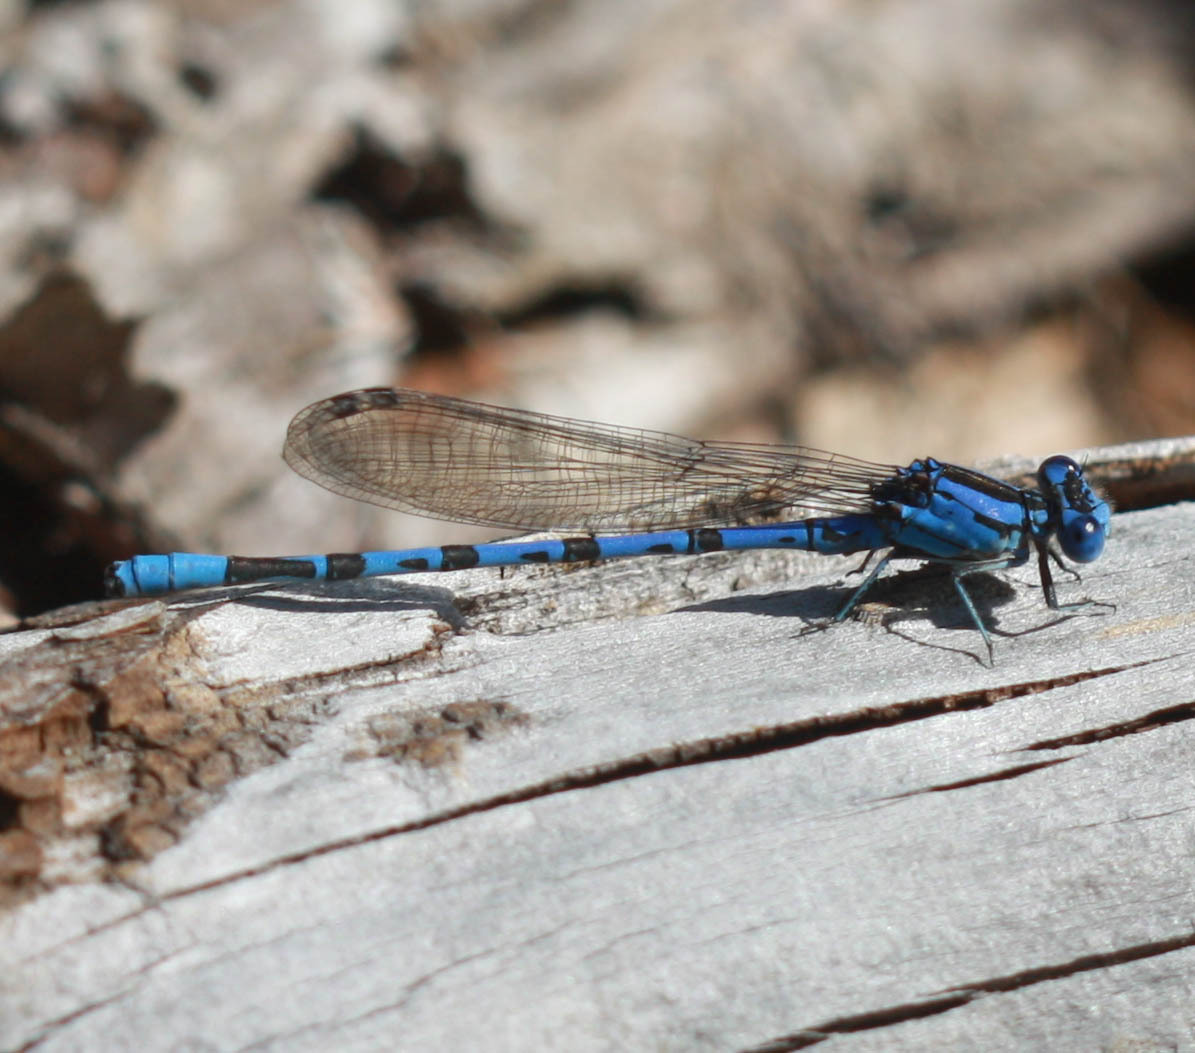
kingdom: Animalia
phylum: Arthropoda
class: Insecta
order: Odonata
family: Coenagrionidae
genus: Argia
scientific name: Argia vivida
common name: Vivid dancer
